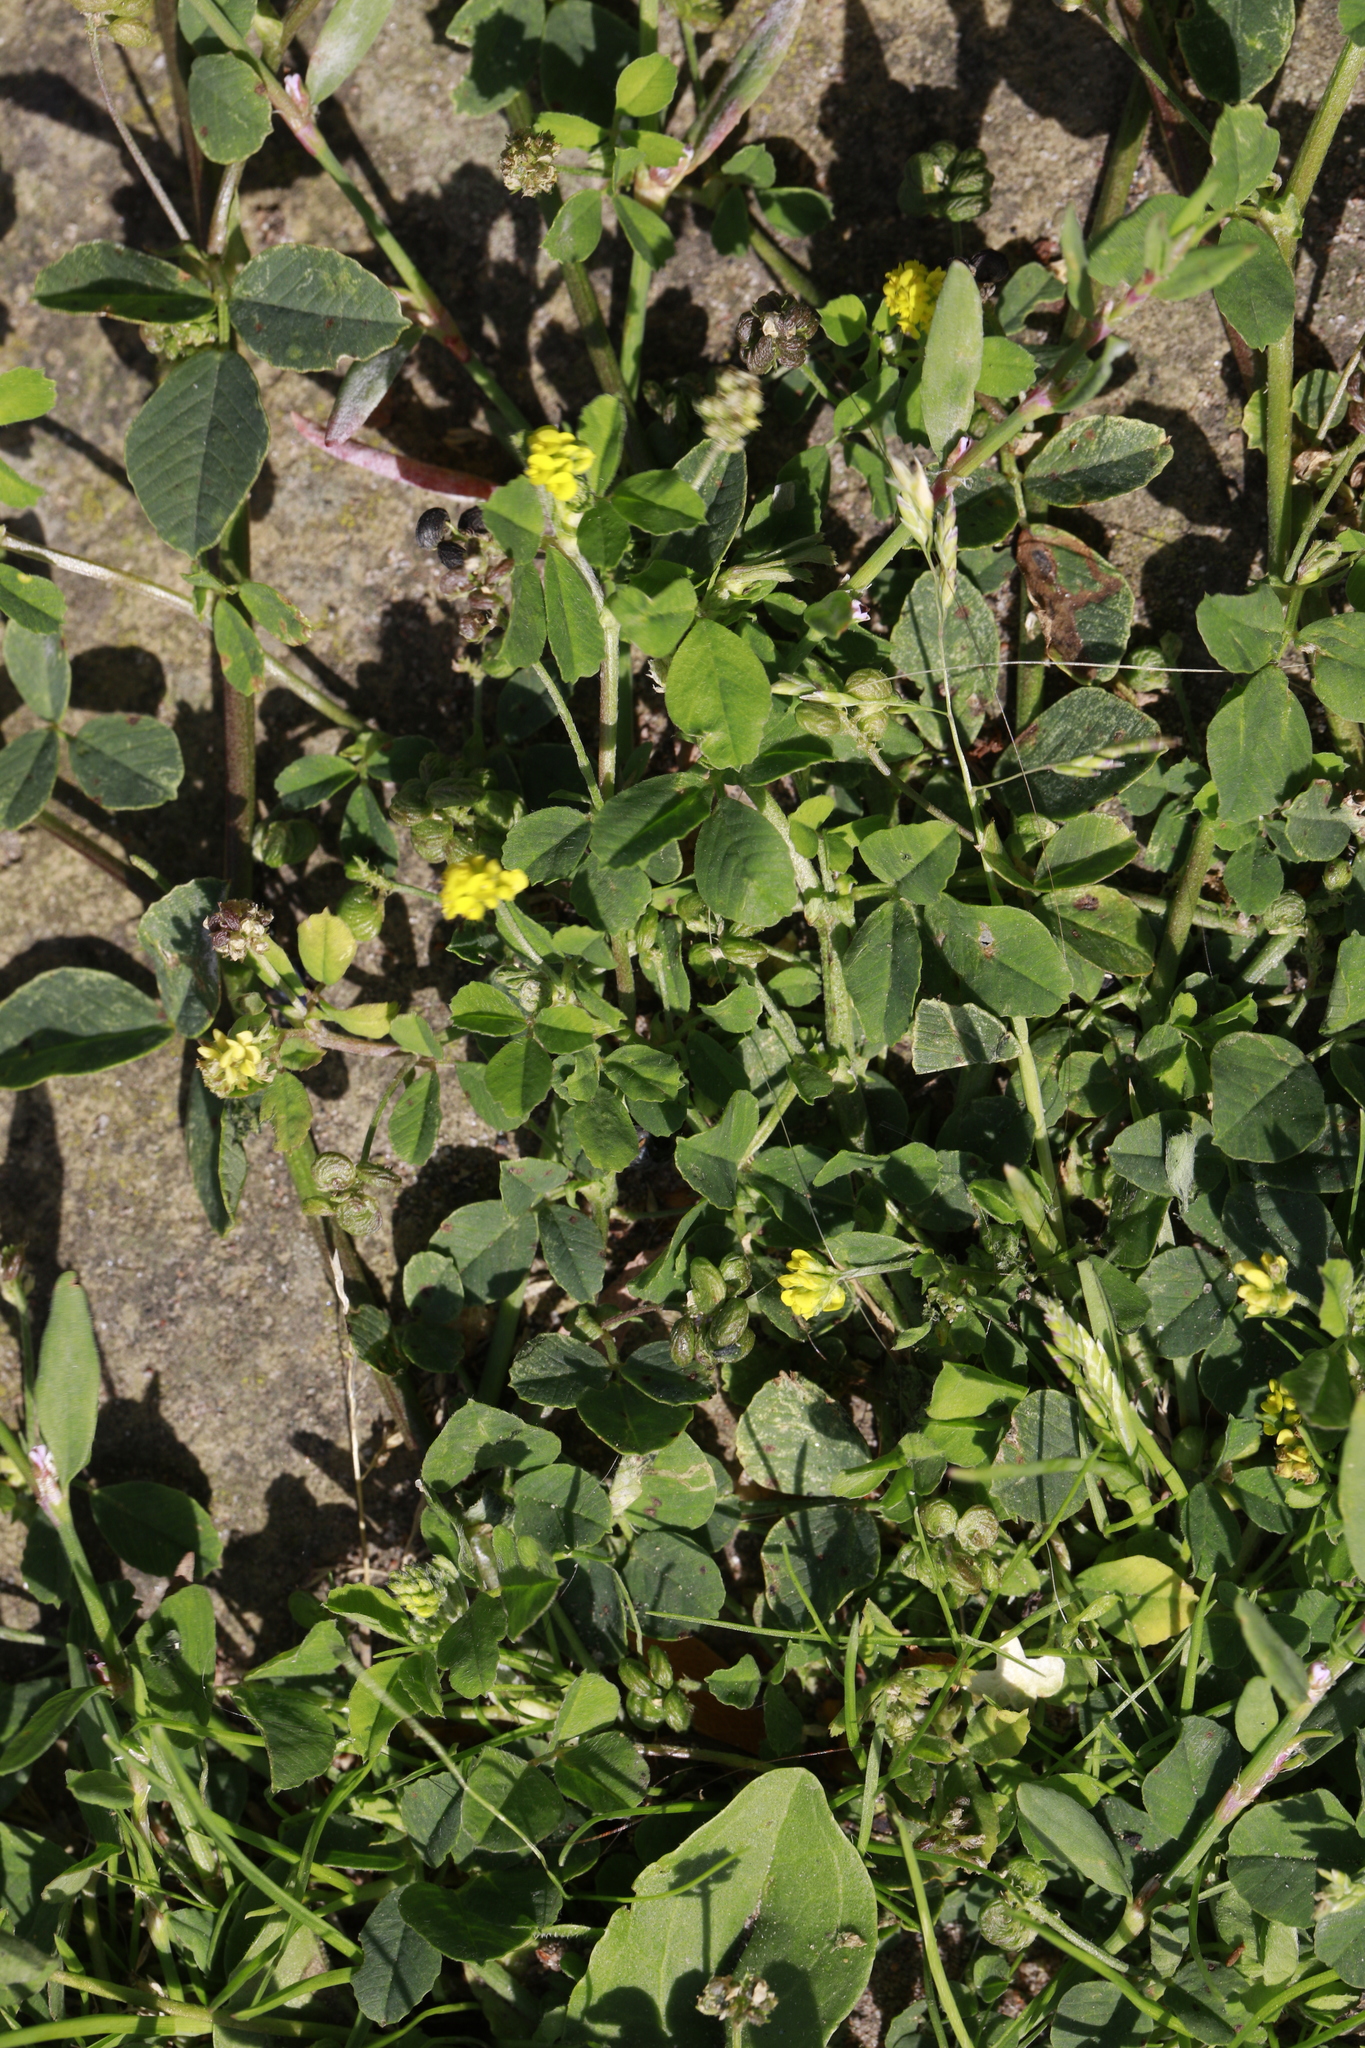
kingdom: Plantae
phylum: Tracheophyta
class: Magnoliopsida
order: Fabales
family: Fabaceae
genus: Medicago
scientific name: Medicago lupulina
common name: Black medick
